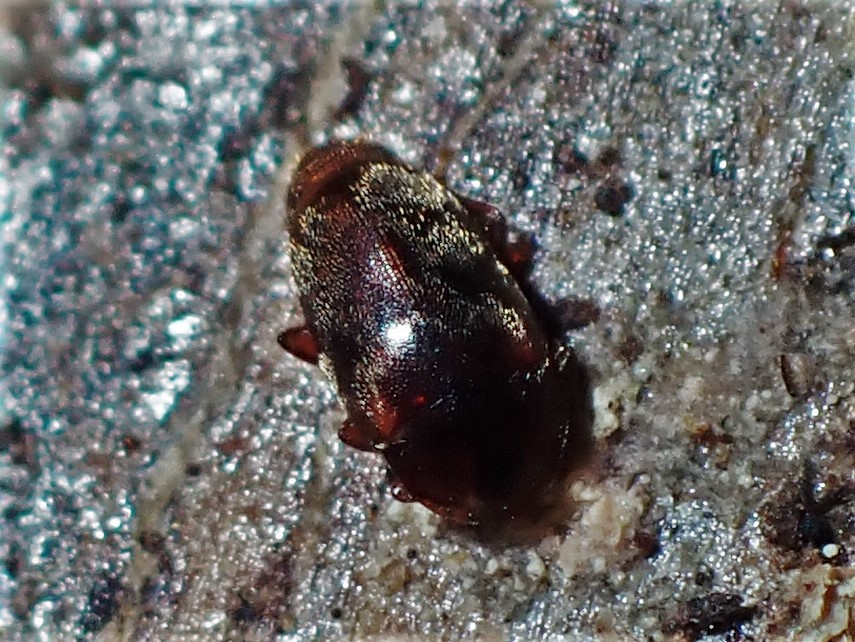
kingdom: Animalia
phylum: Arthropoda
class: Insecta
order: Coleoptera
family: Corylophidae
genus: Arthrolips
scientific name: Arthrolips
